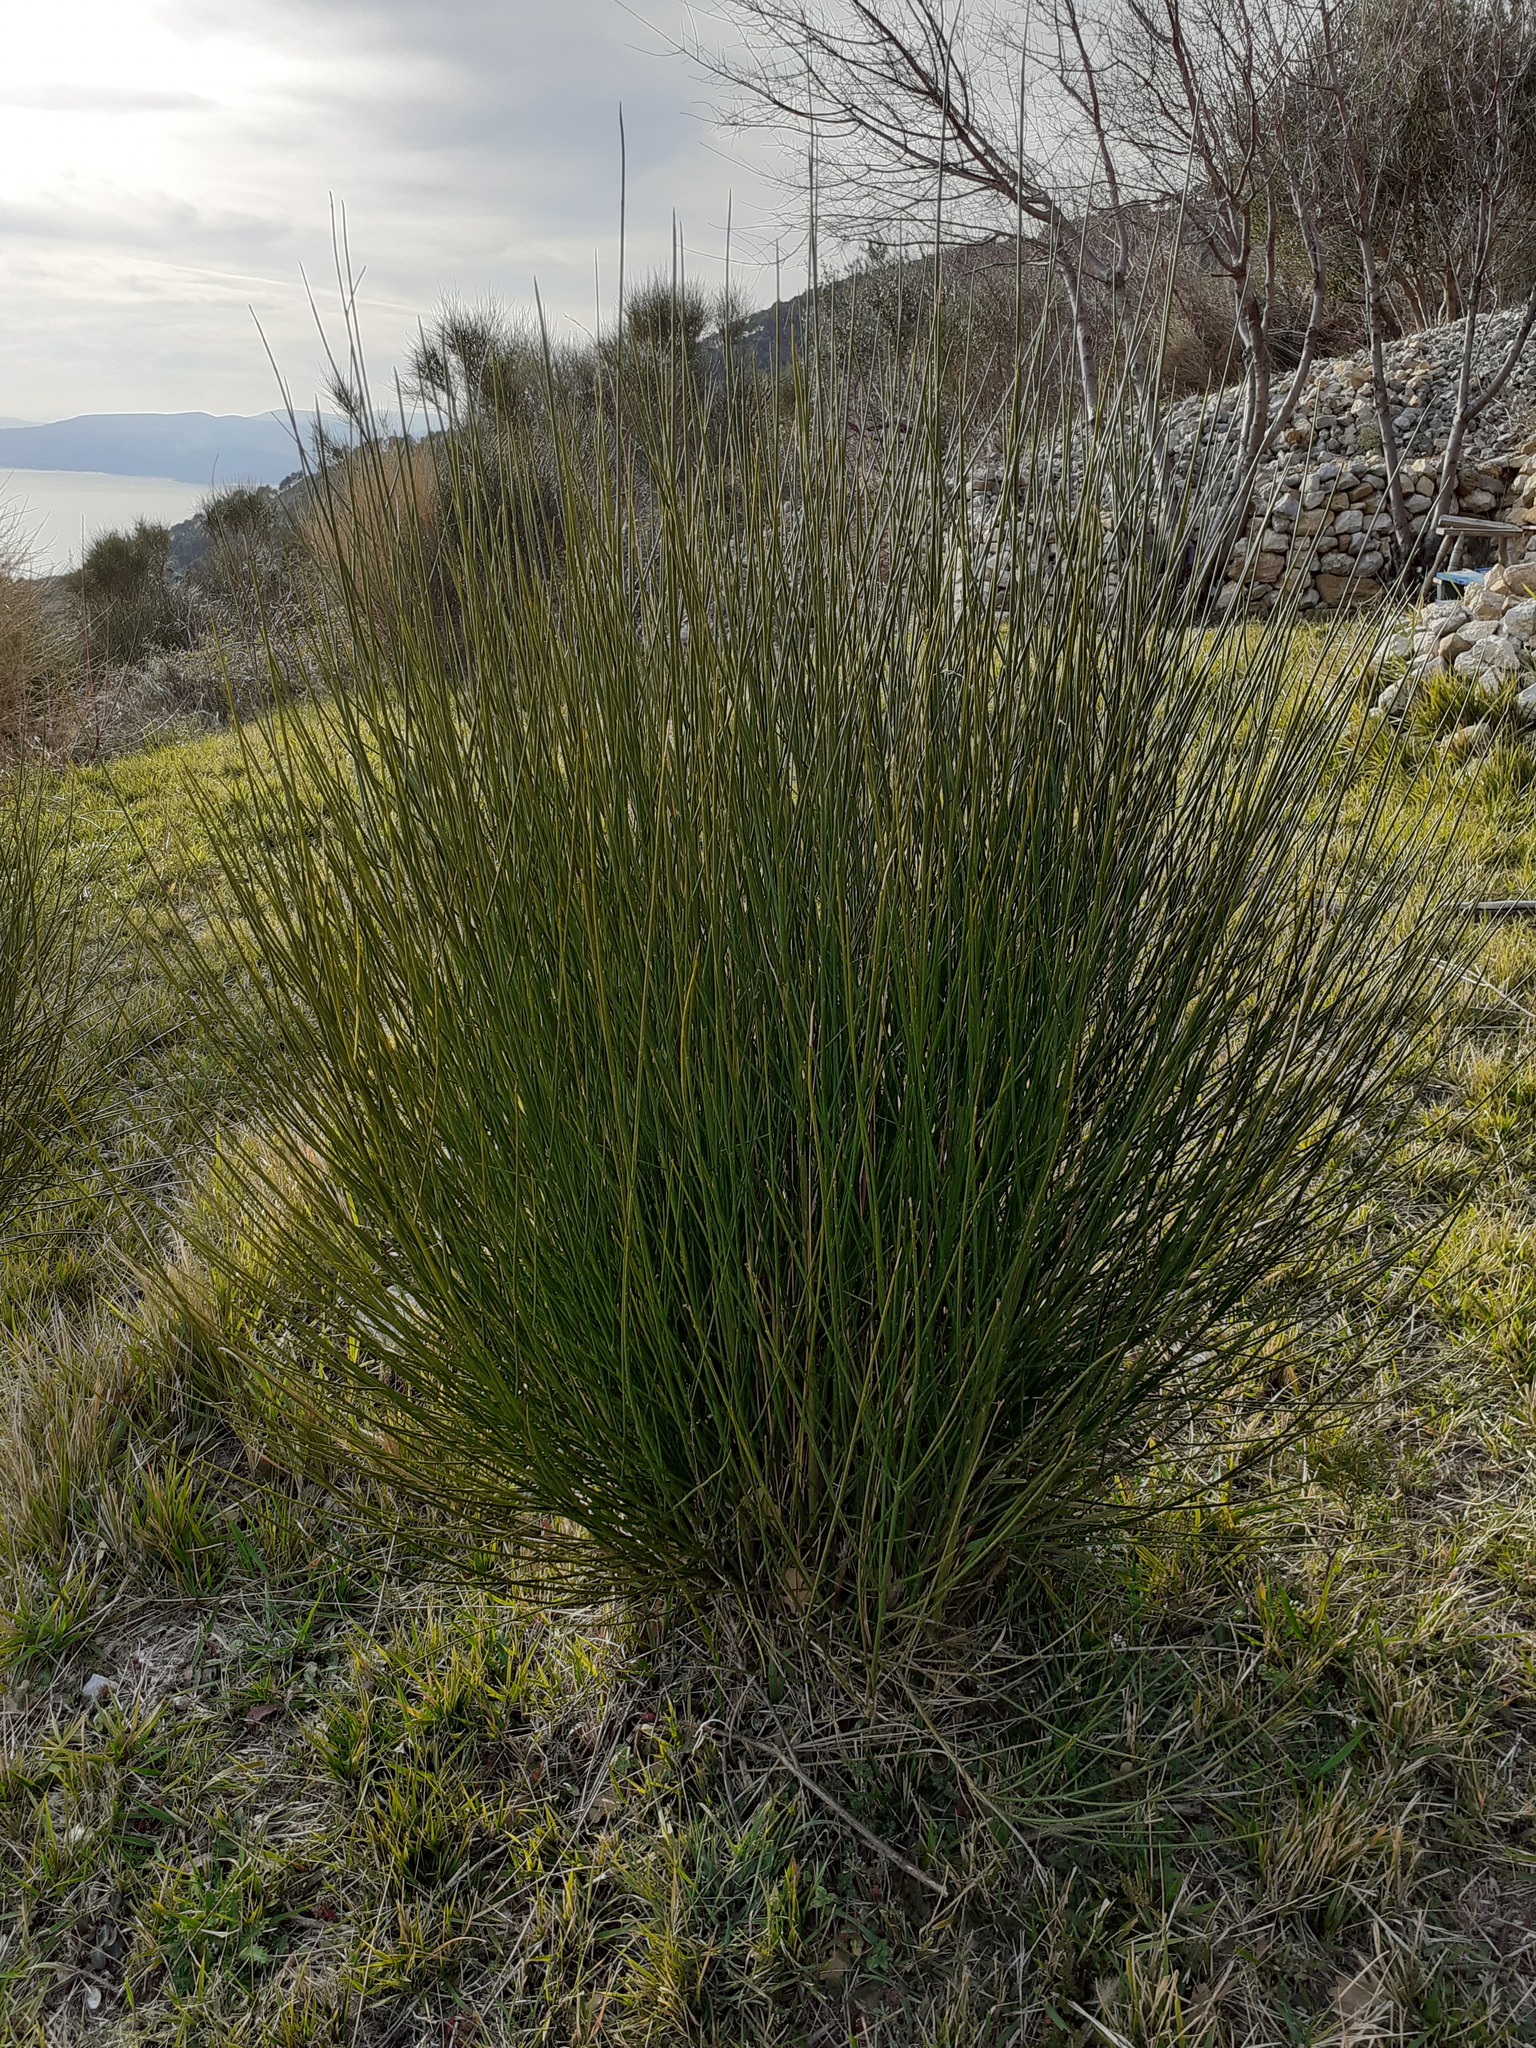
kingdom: Plantae
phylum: Tracheophyta
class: Magnoliopsida
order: Fabales
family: Fabaceae
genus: Spartium
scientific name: Spartium junceum
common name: Spanish broom
